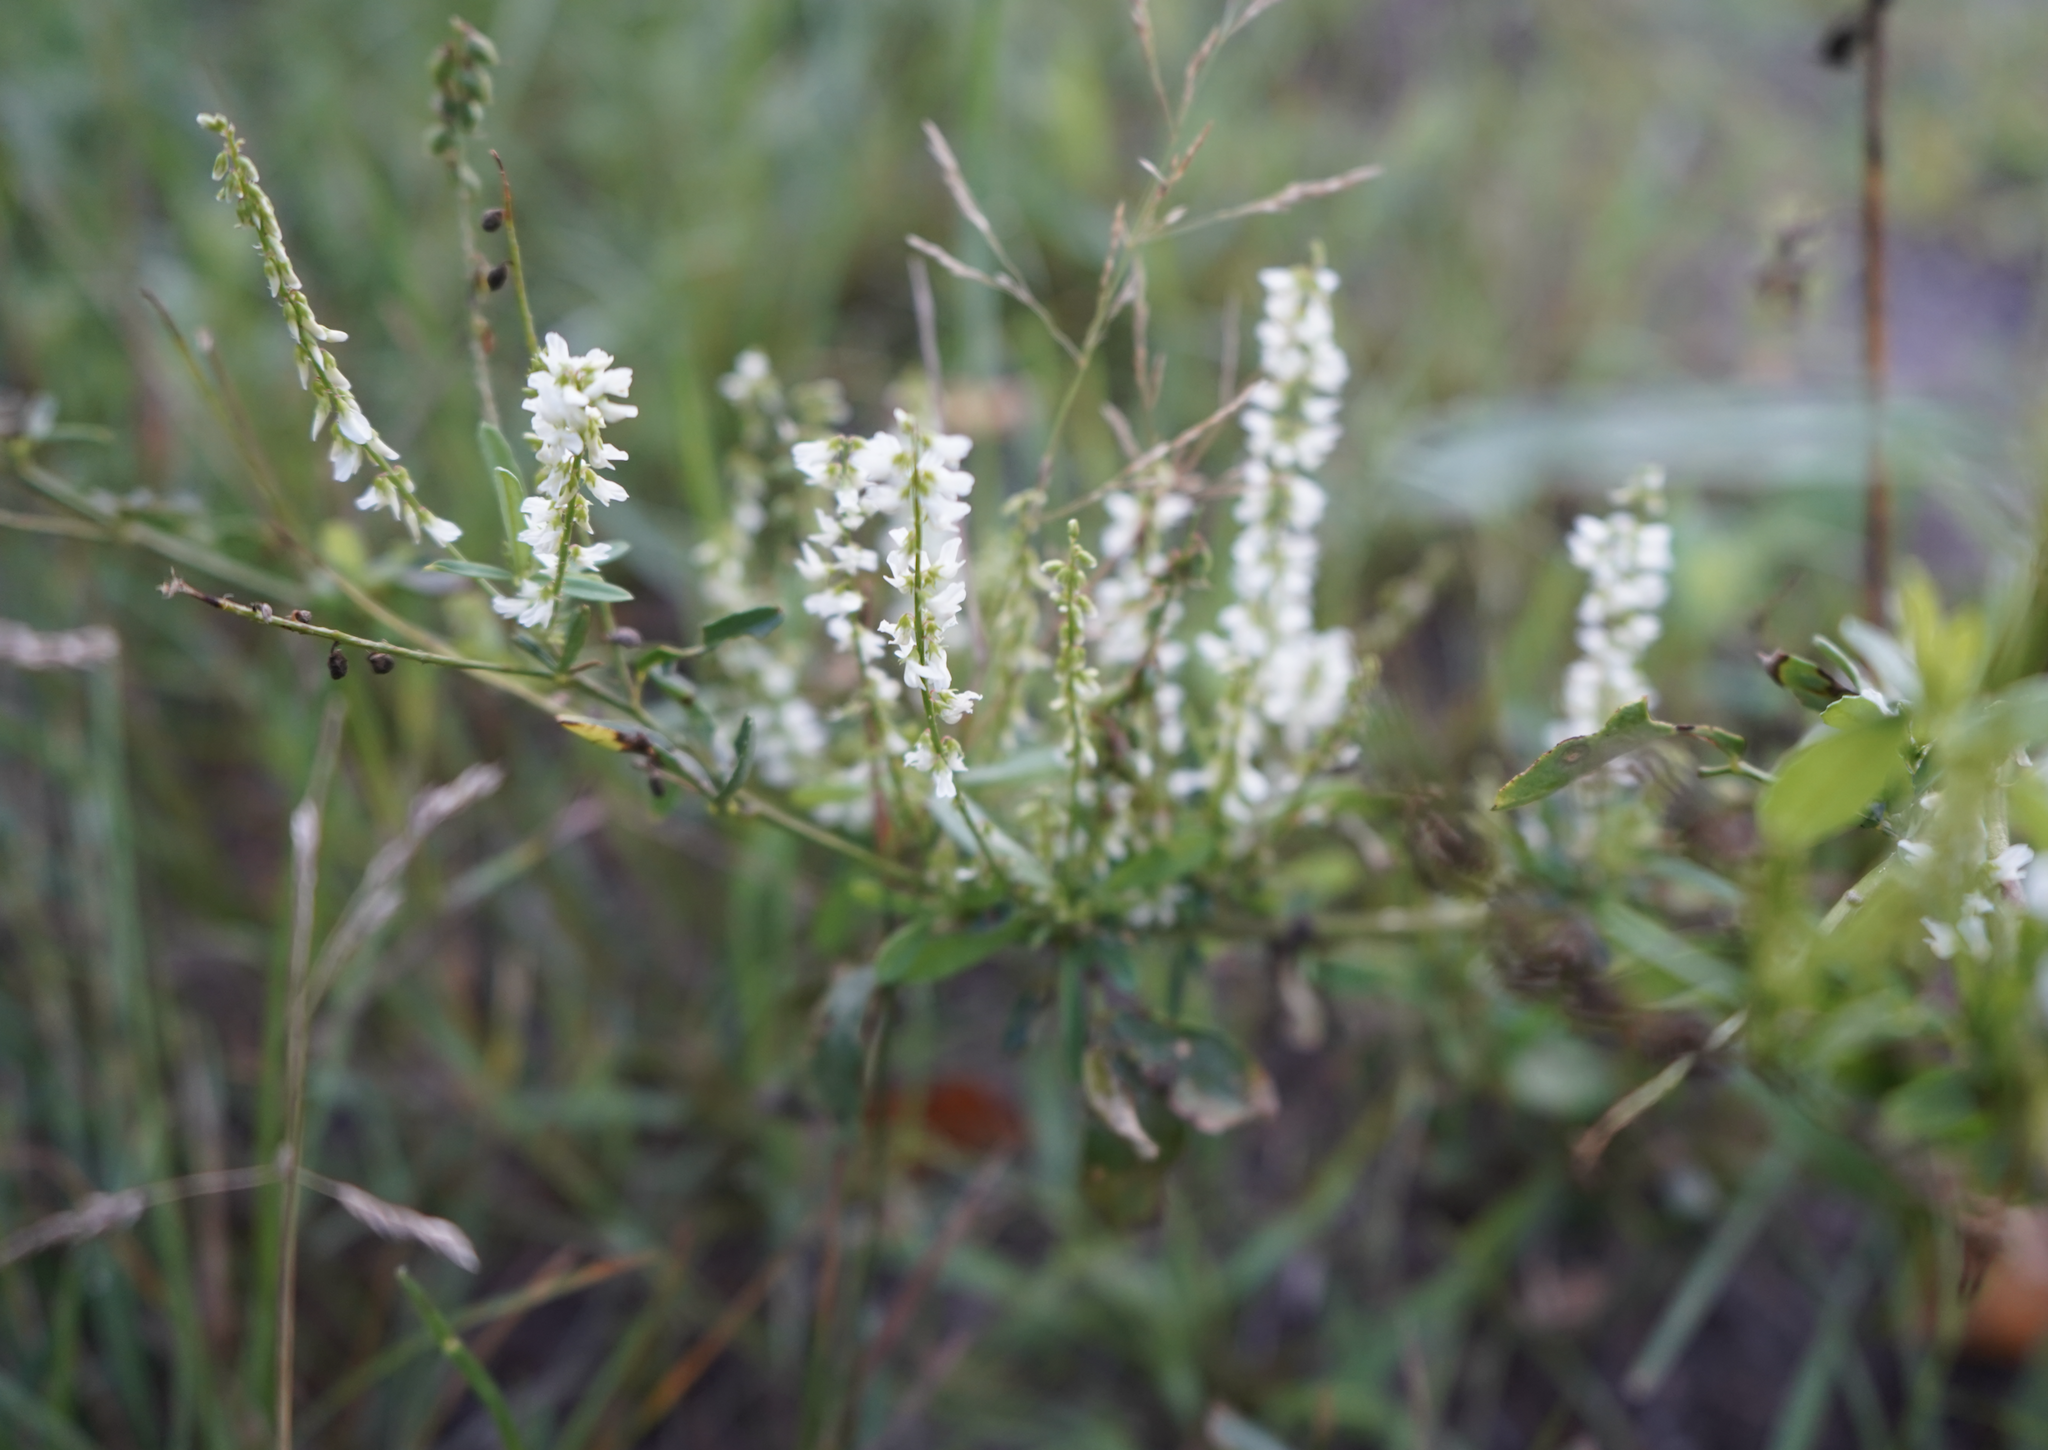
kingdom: Plantae
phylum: Tracheophyta
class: Magnoliopsida
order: Fabales
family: Fabaceae
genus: Melilotus
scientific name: Melilotus albus
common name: White melilot
